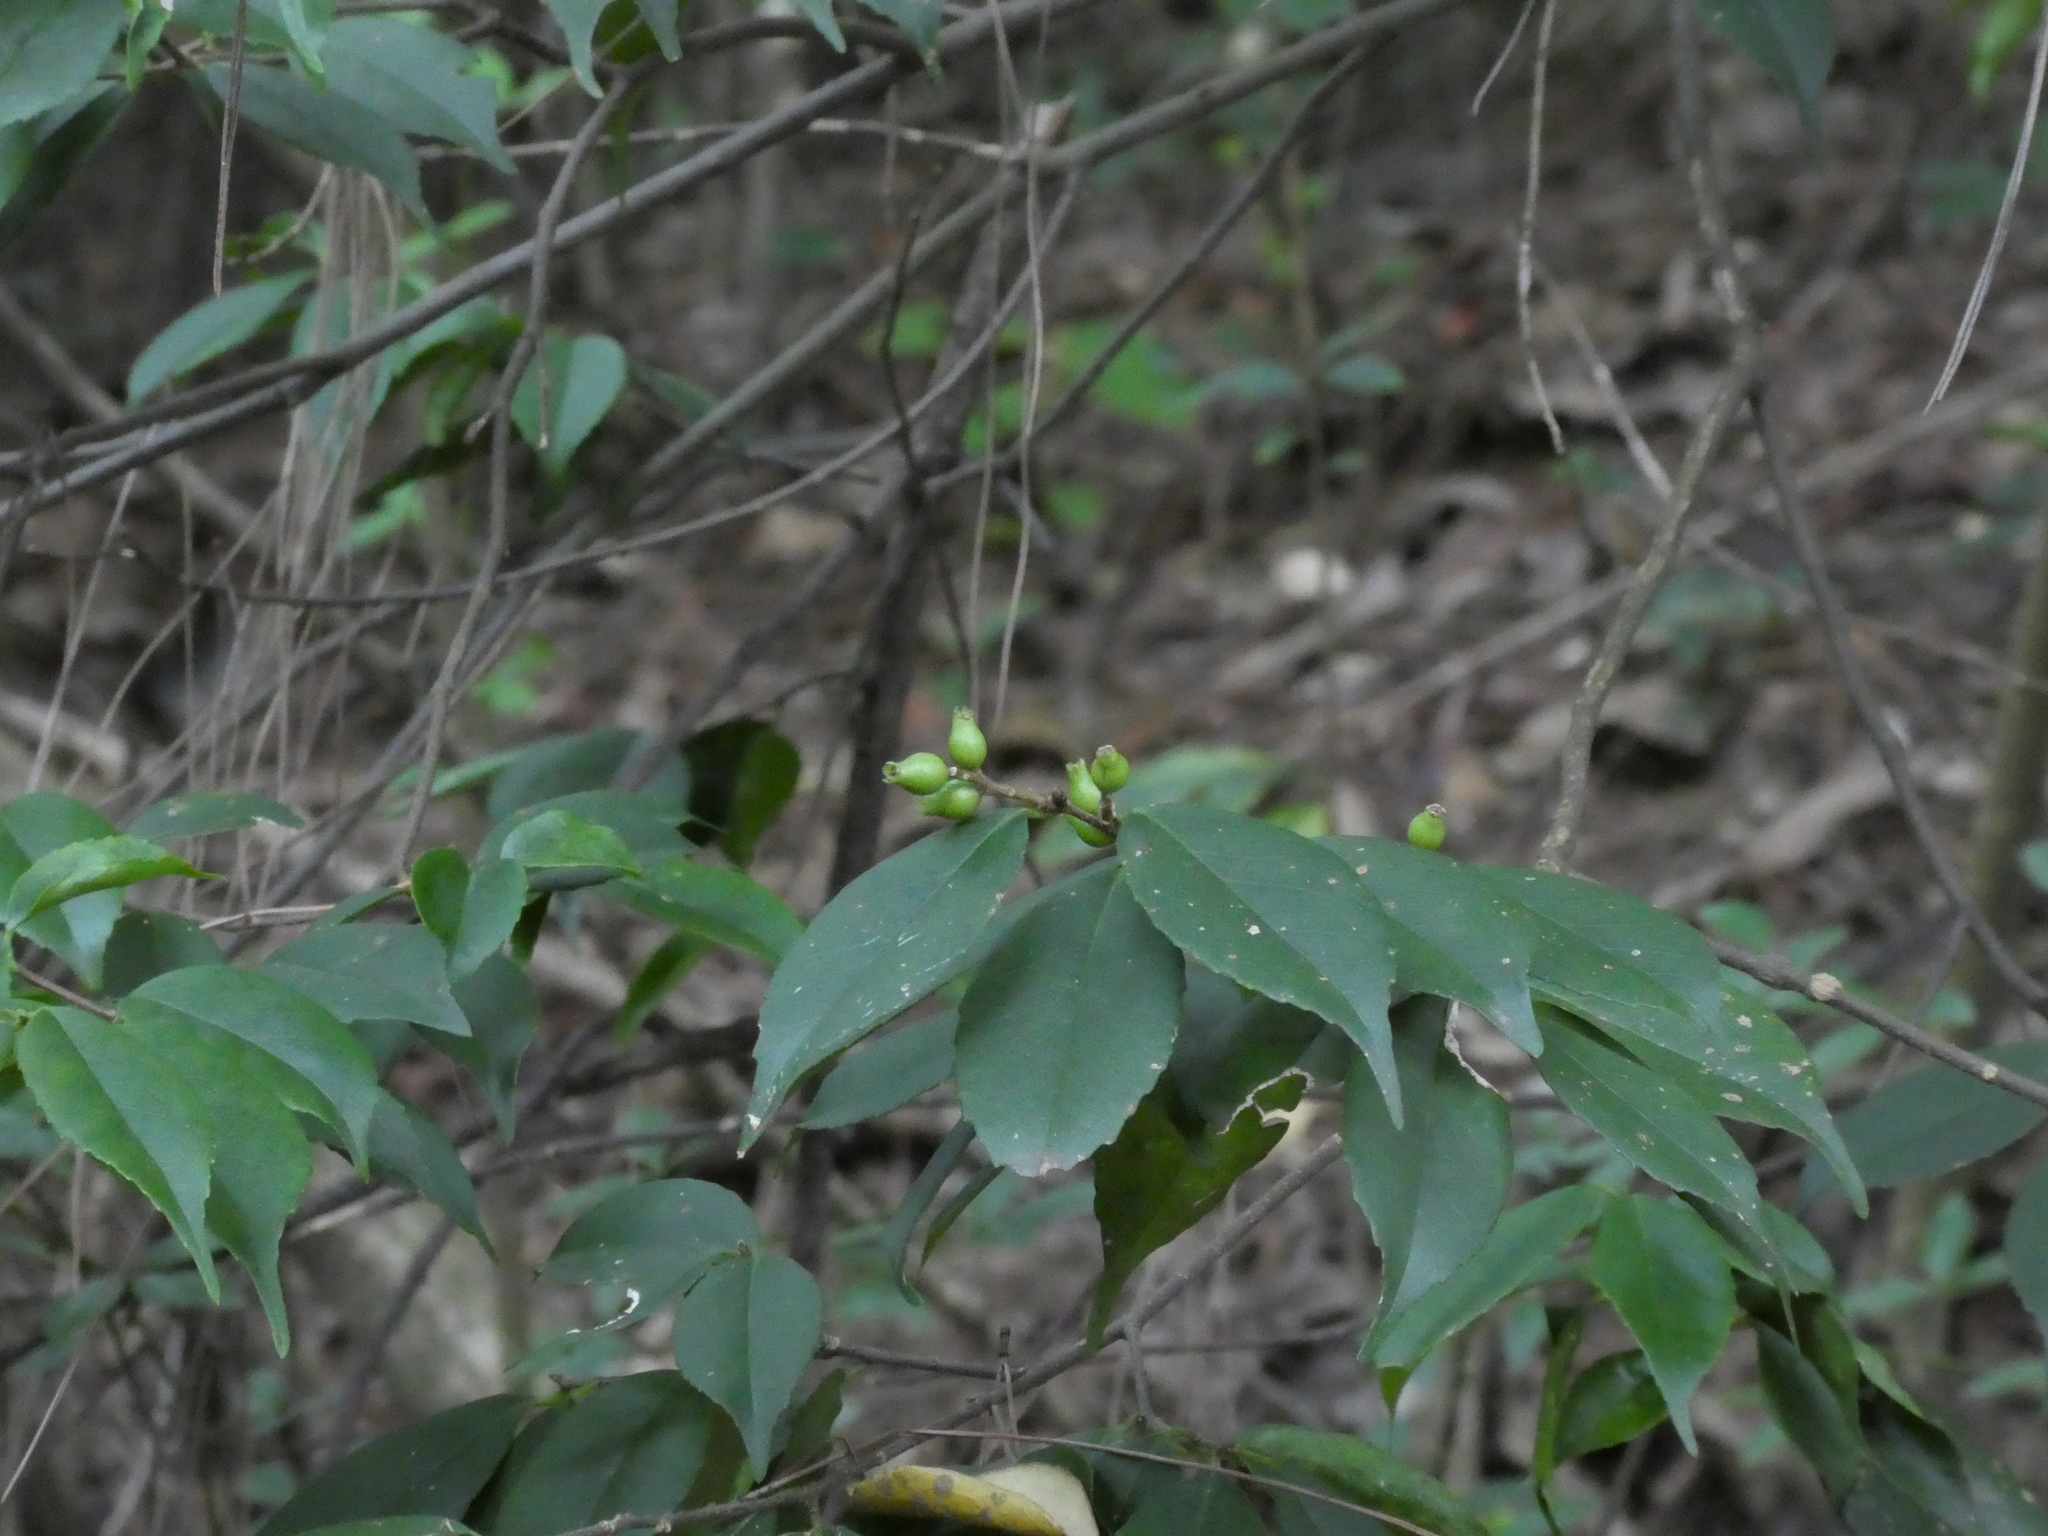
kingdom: Plantae
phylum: Tracheophyta
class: Magnoliopsida
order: Ericales
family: Symplocaceae
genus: Symplocos
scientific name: Symplocos sumuntia
